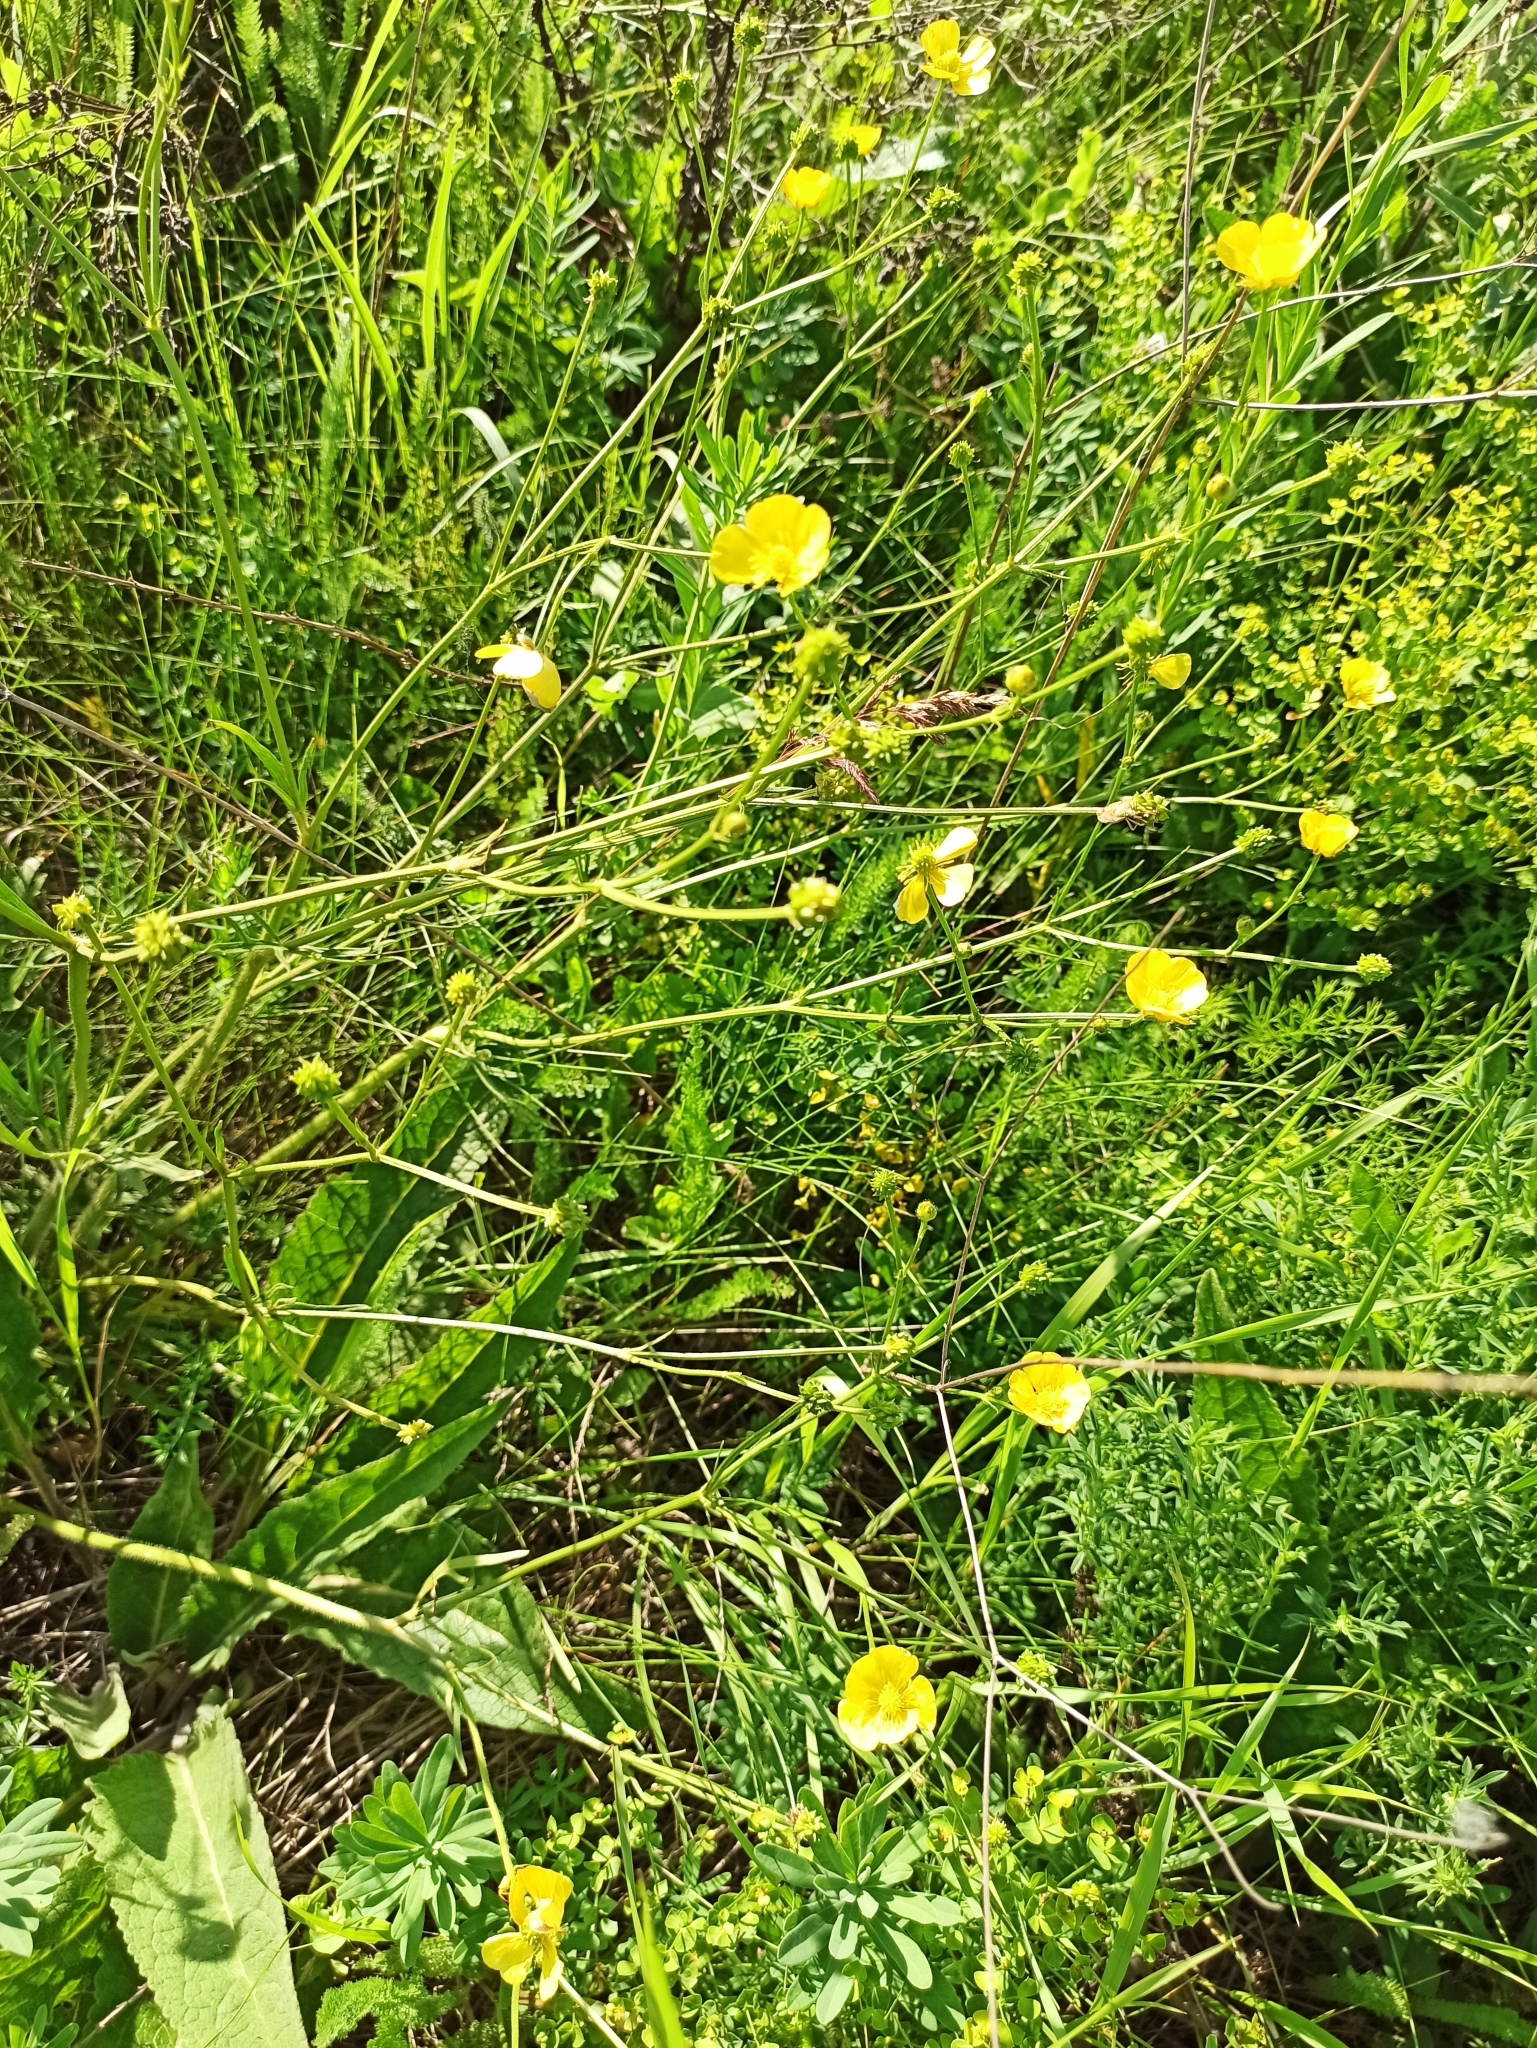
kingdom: Plantae
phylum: Tracheophyta
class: Magnoliopsida
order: Ranunculales
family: Ranunculaceae
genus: Ranunculus
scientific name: Ranunculus polyanthemos
